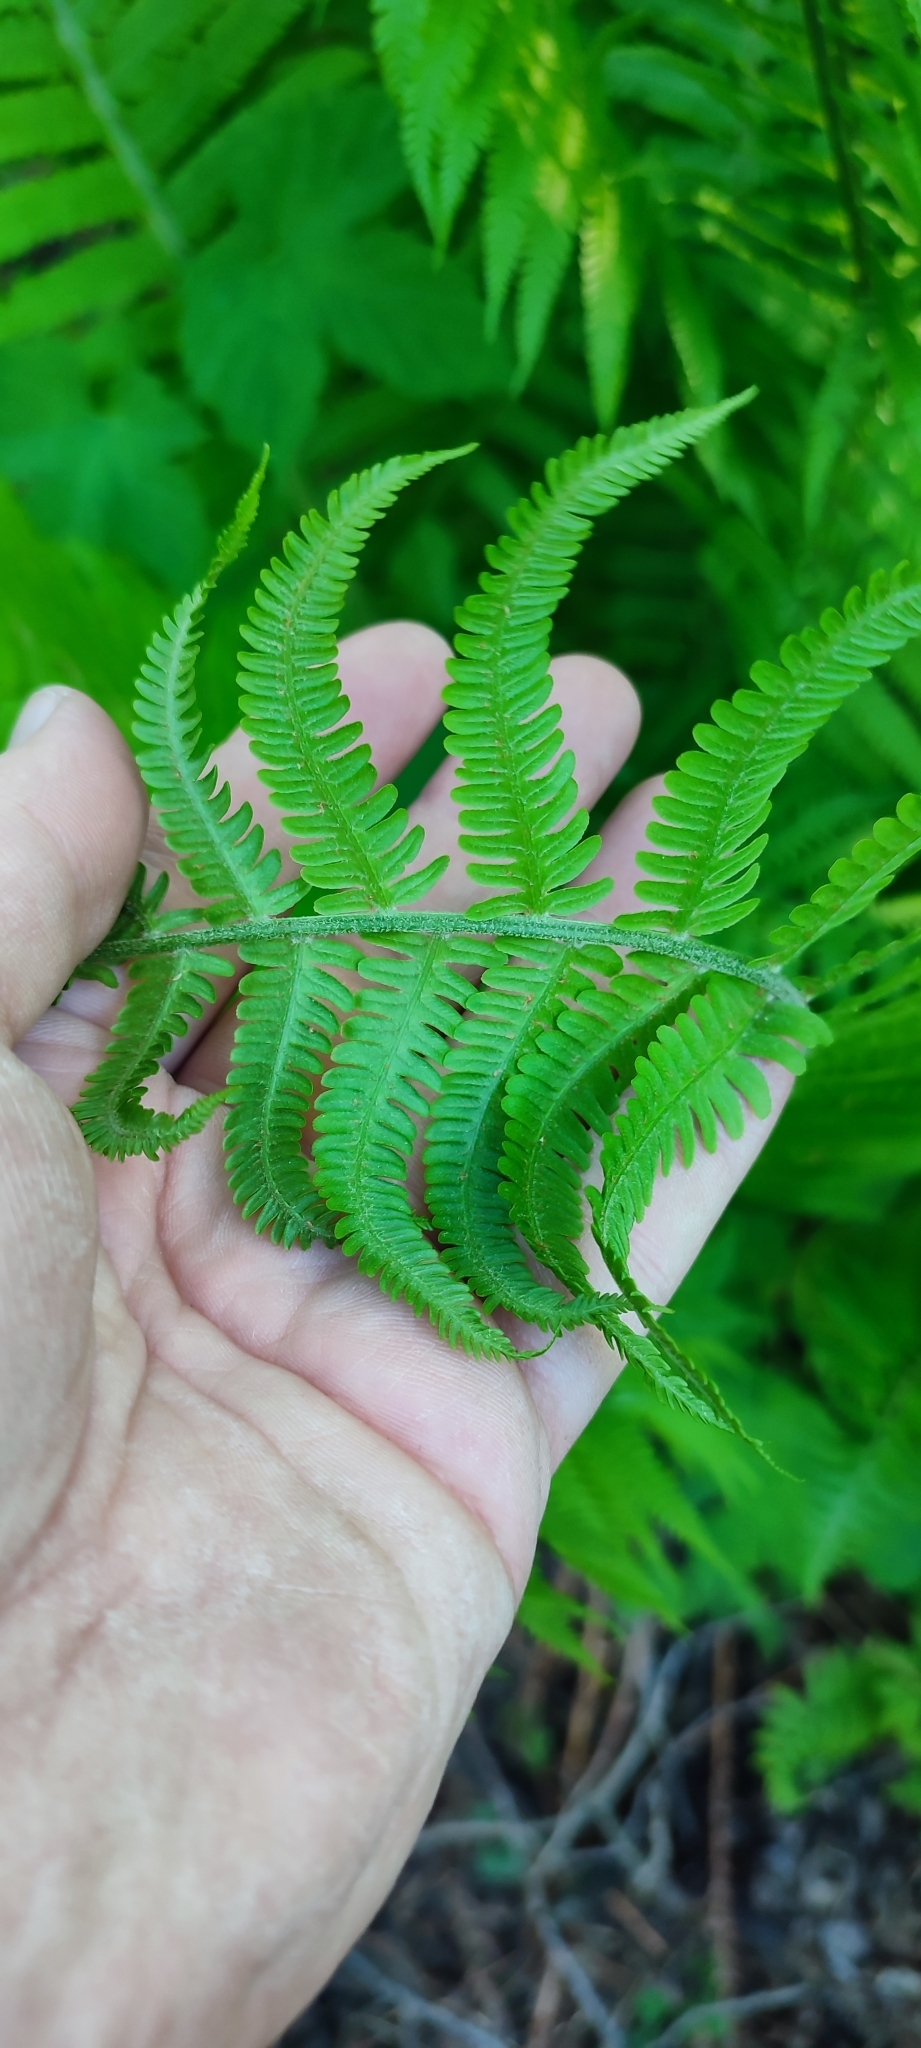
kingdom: Plantae
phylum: Tracheophyta
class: Polypodiopsida
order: Polypodiales
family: Onocleaceae
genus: Matteuccia
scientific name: Matteuccia struthiopteris
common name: Ostrich fern
